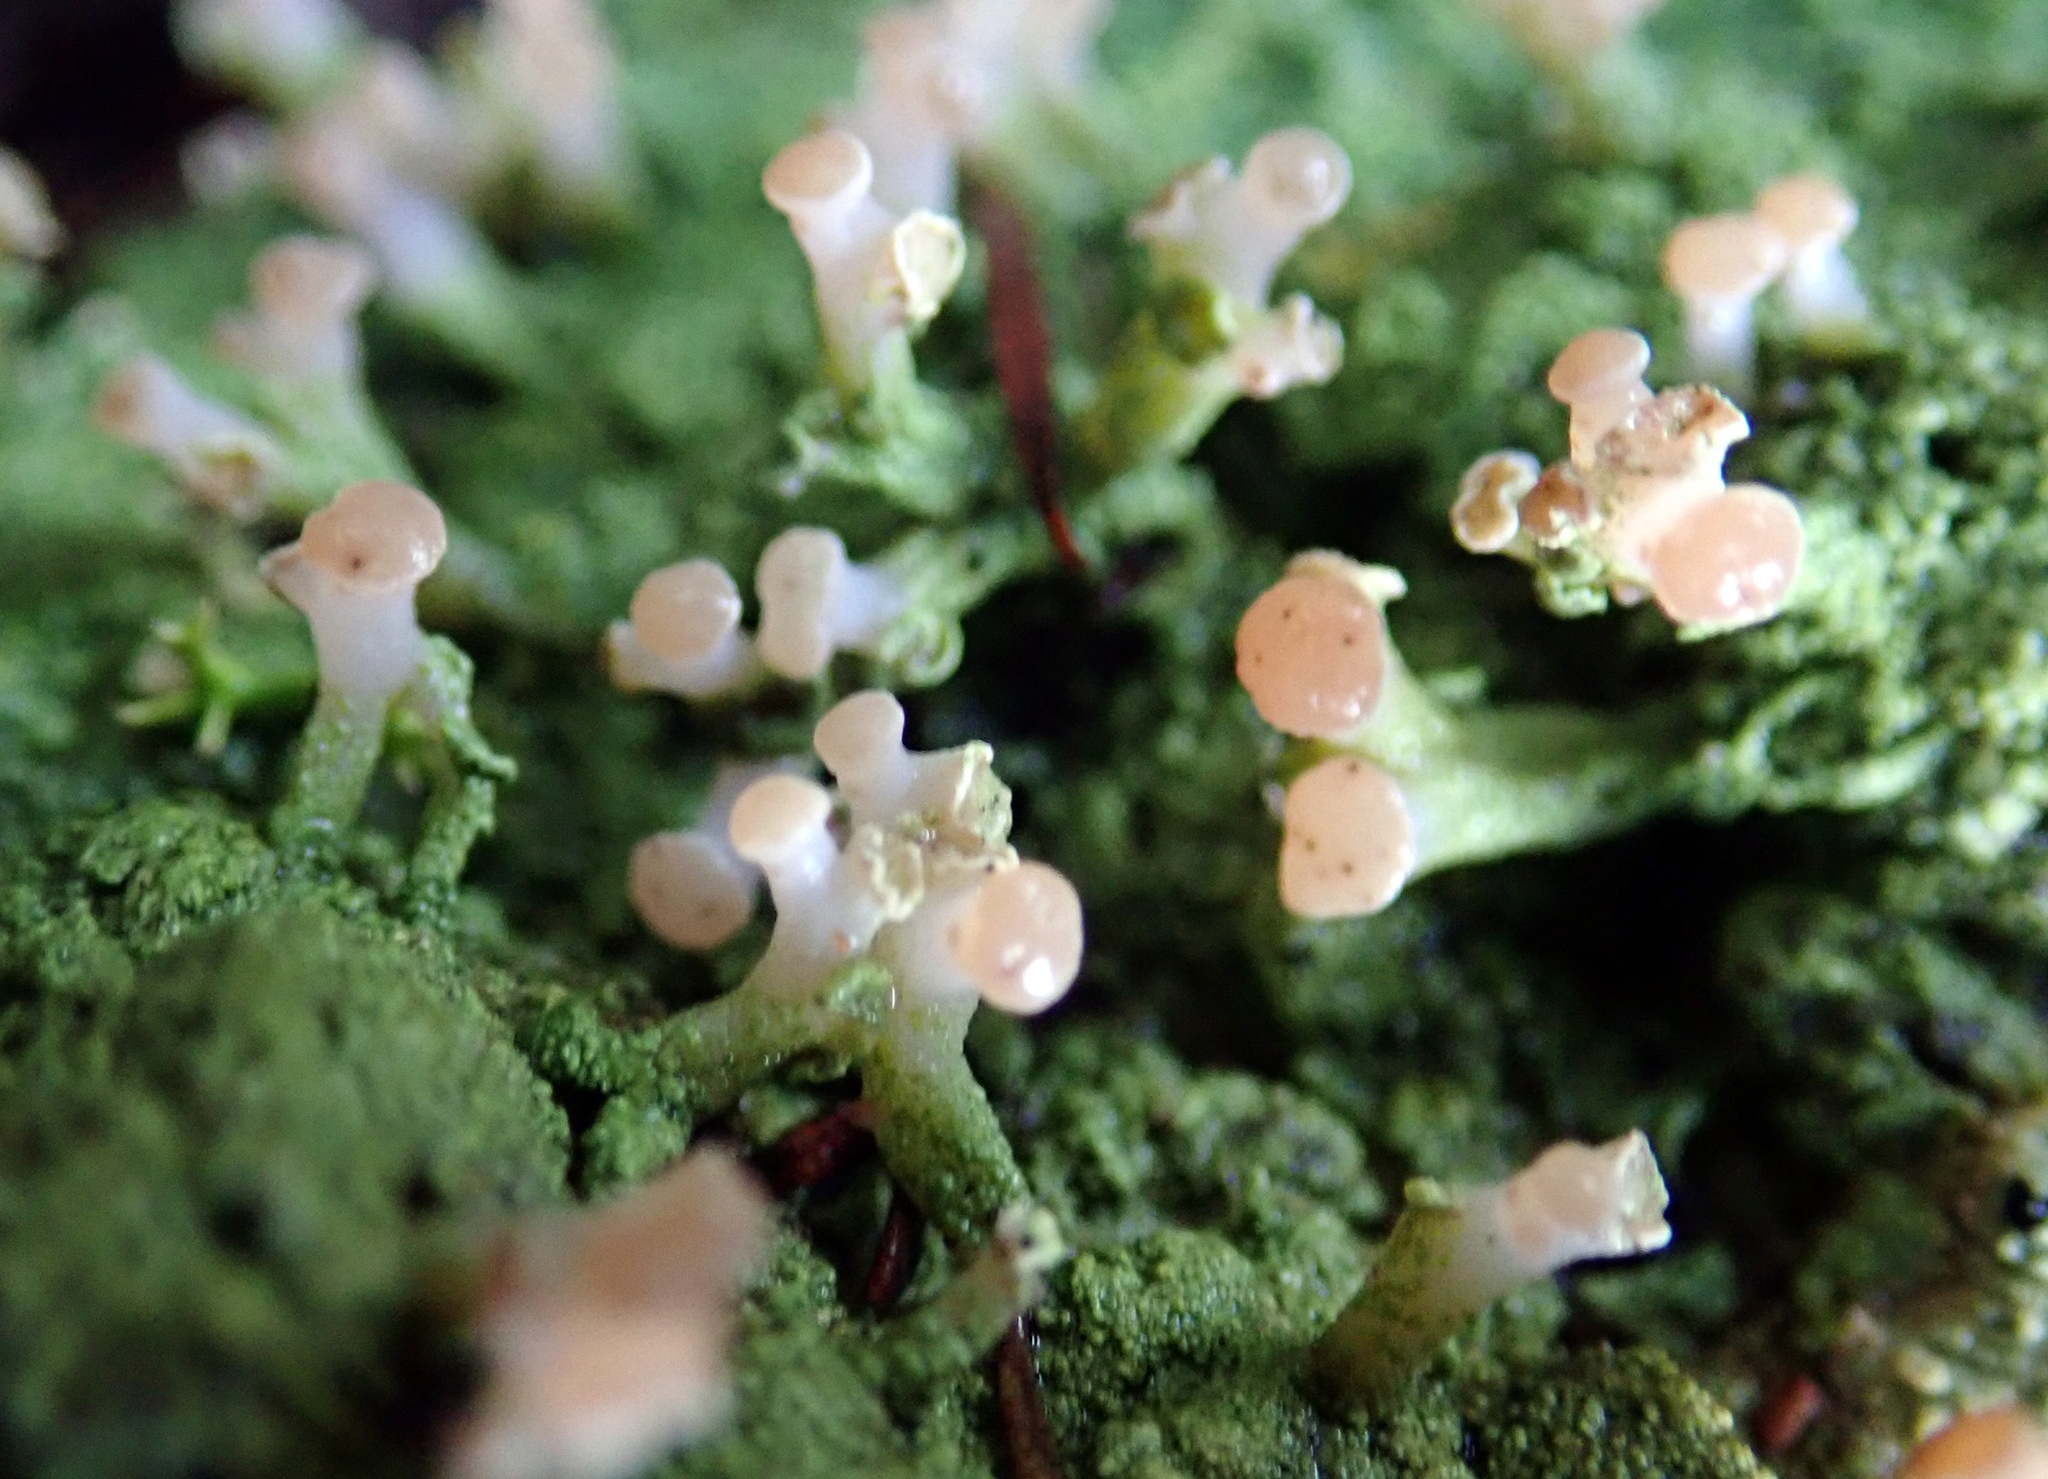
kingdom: Fungi
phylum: Ascomycota
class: Lecanoromycetes
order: Baeomycetales
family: Baeomycetaceae
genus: Baeomyces
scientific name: Baeomyces heteromorphus
